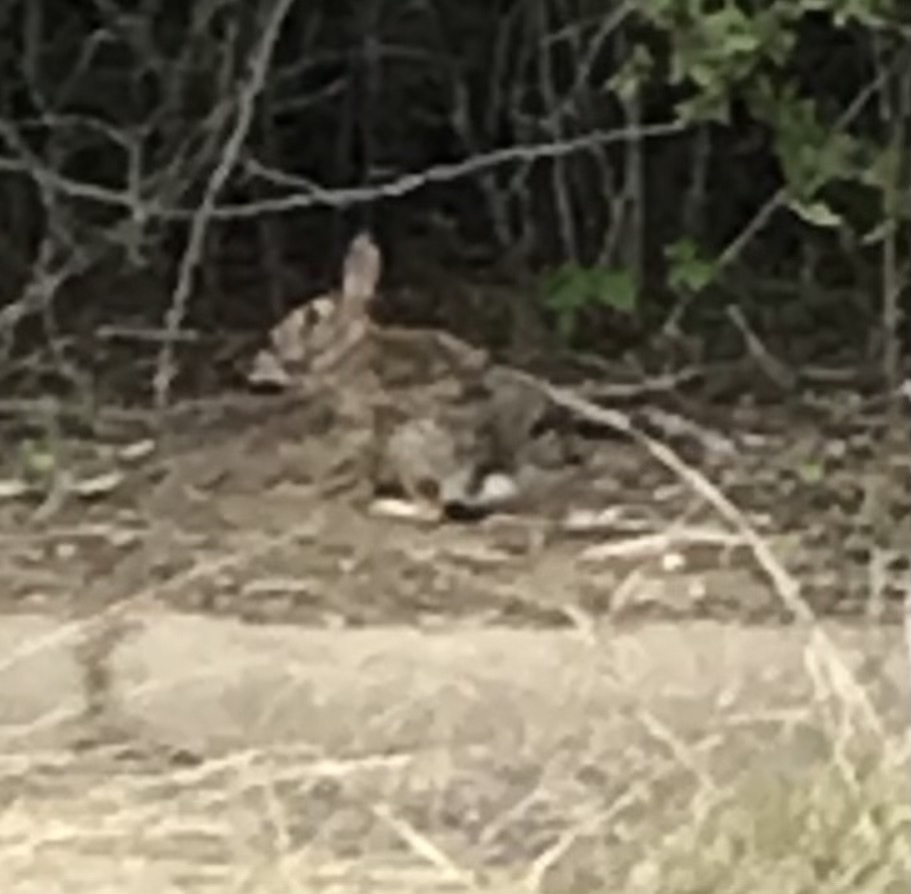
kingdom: Animalia
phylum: Chordata
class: Mammalia
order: Lagomorpha
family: Leporidae
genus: Sylvilagus
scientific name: Sylvilagus floridanus
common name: Eastern cottontail
